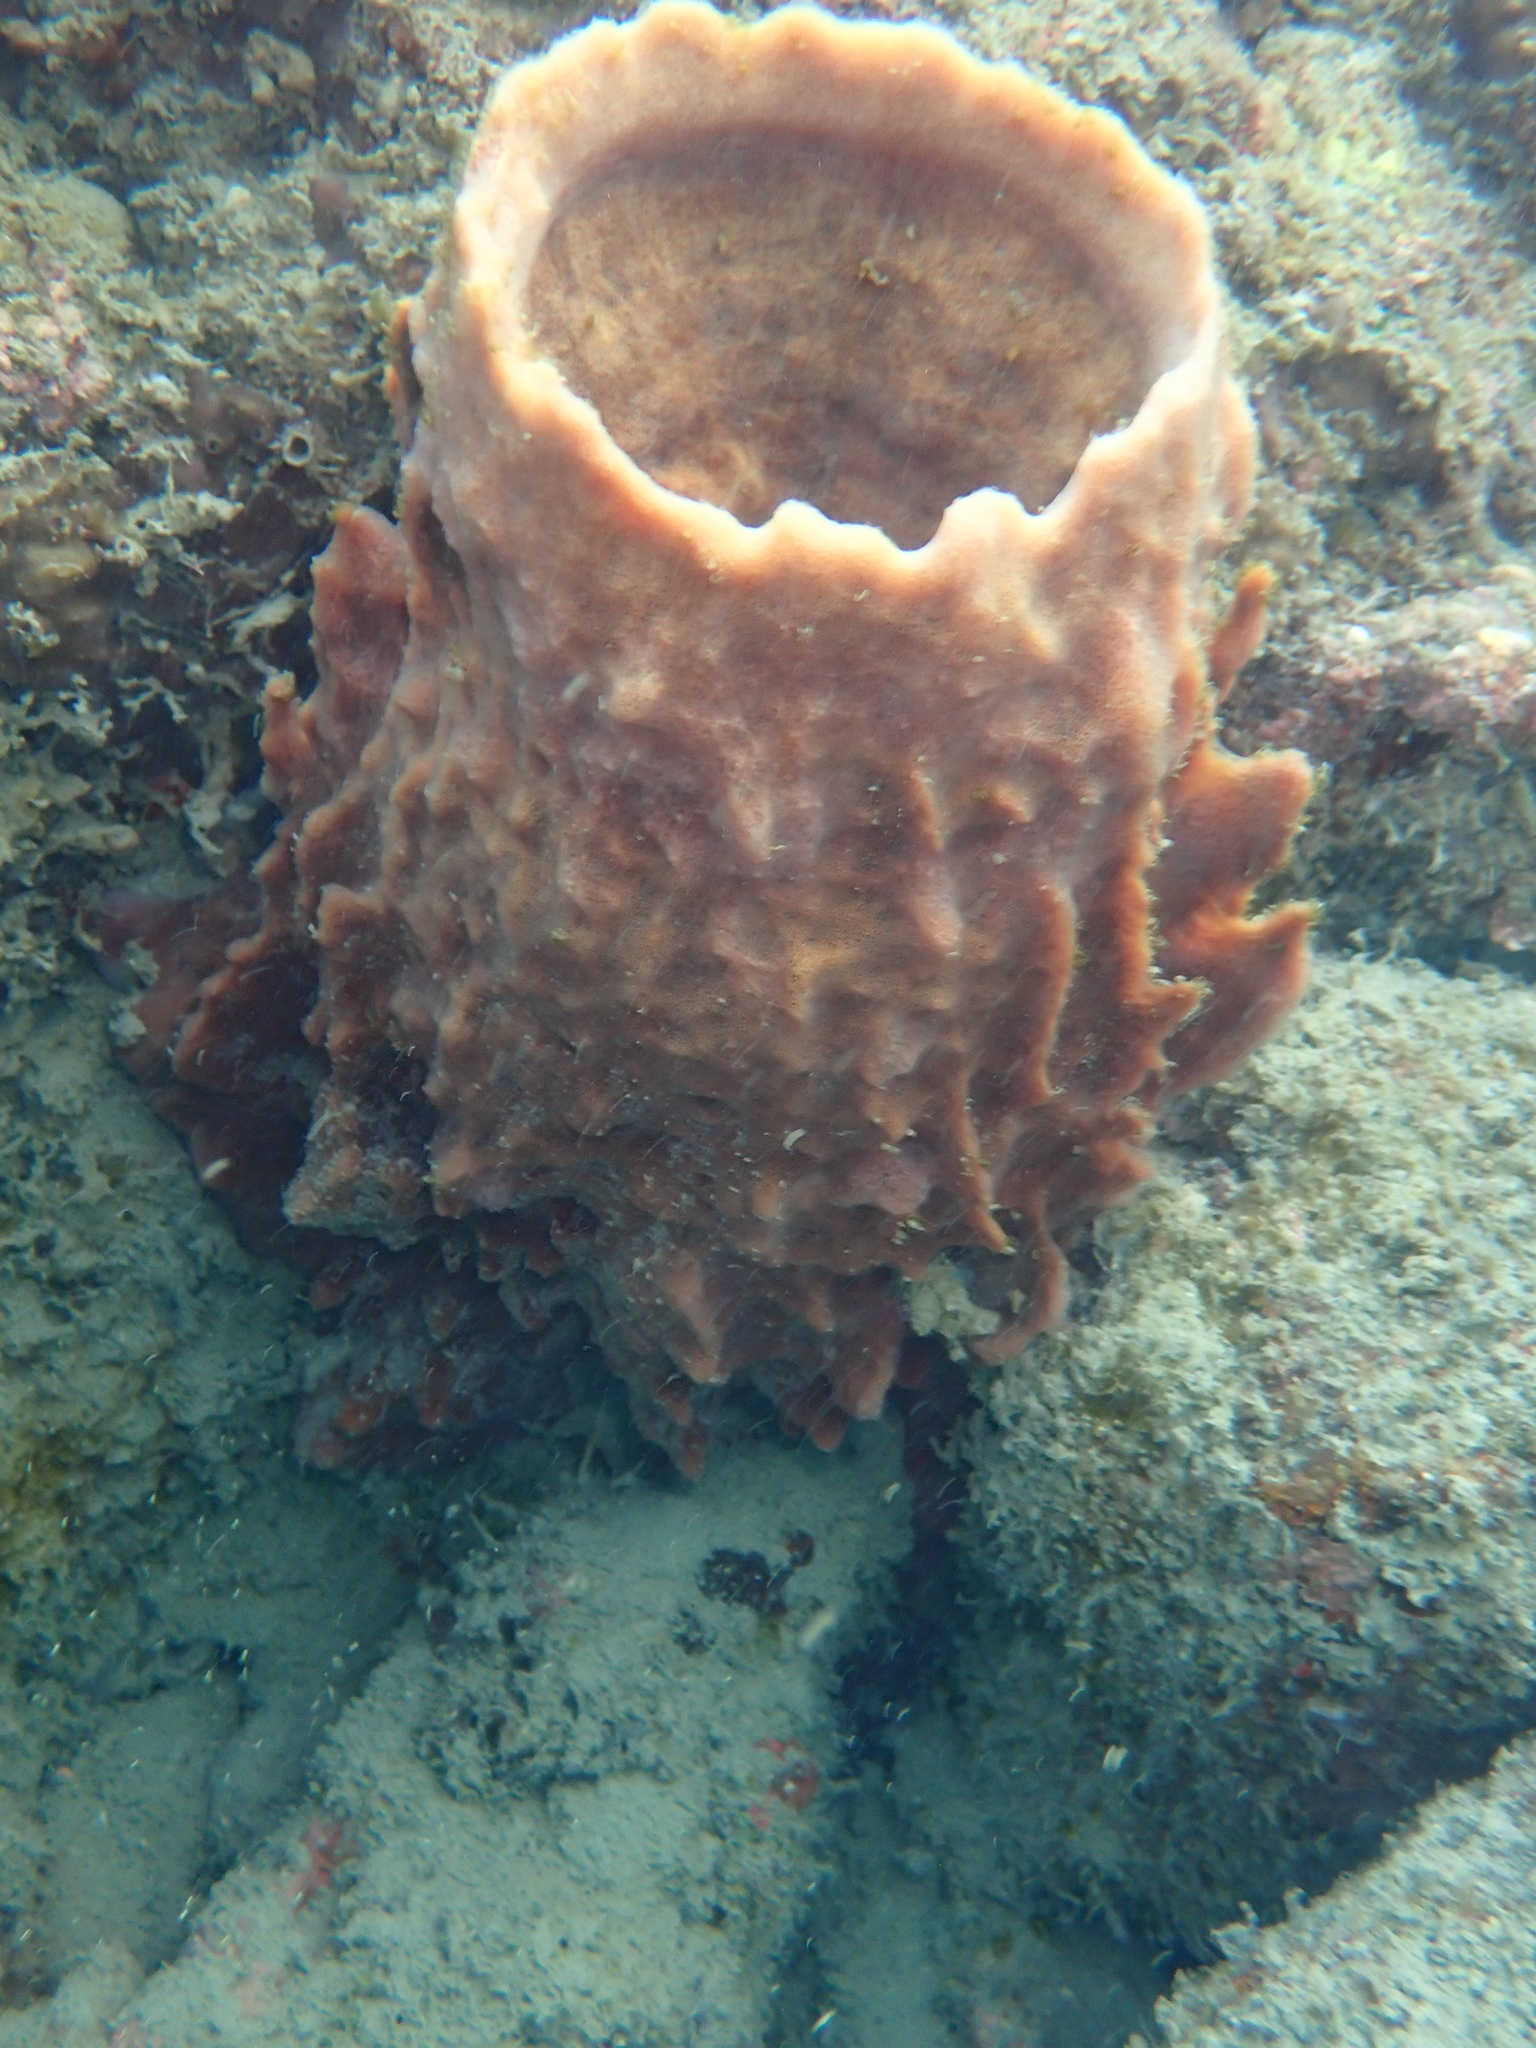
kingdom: Animalia
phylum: Porifera
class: Demospongiae
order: Haplosclerida
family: Petrosiidae
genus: Xestospongia
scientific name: Xestospongia testudinaria
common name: Barrel sponge
